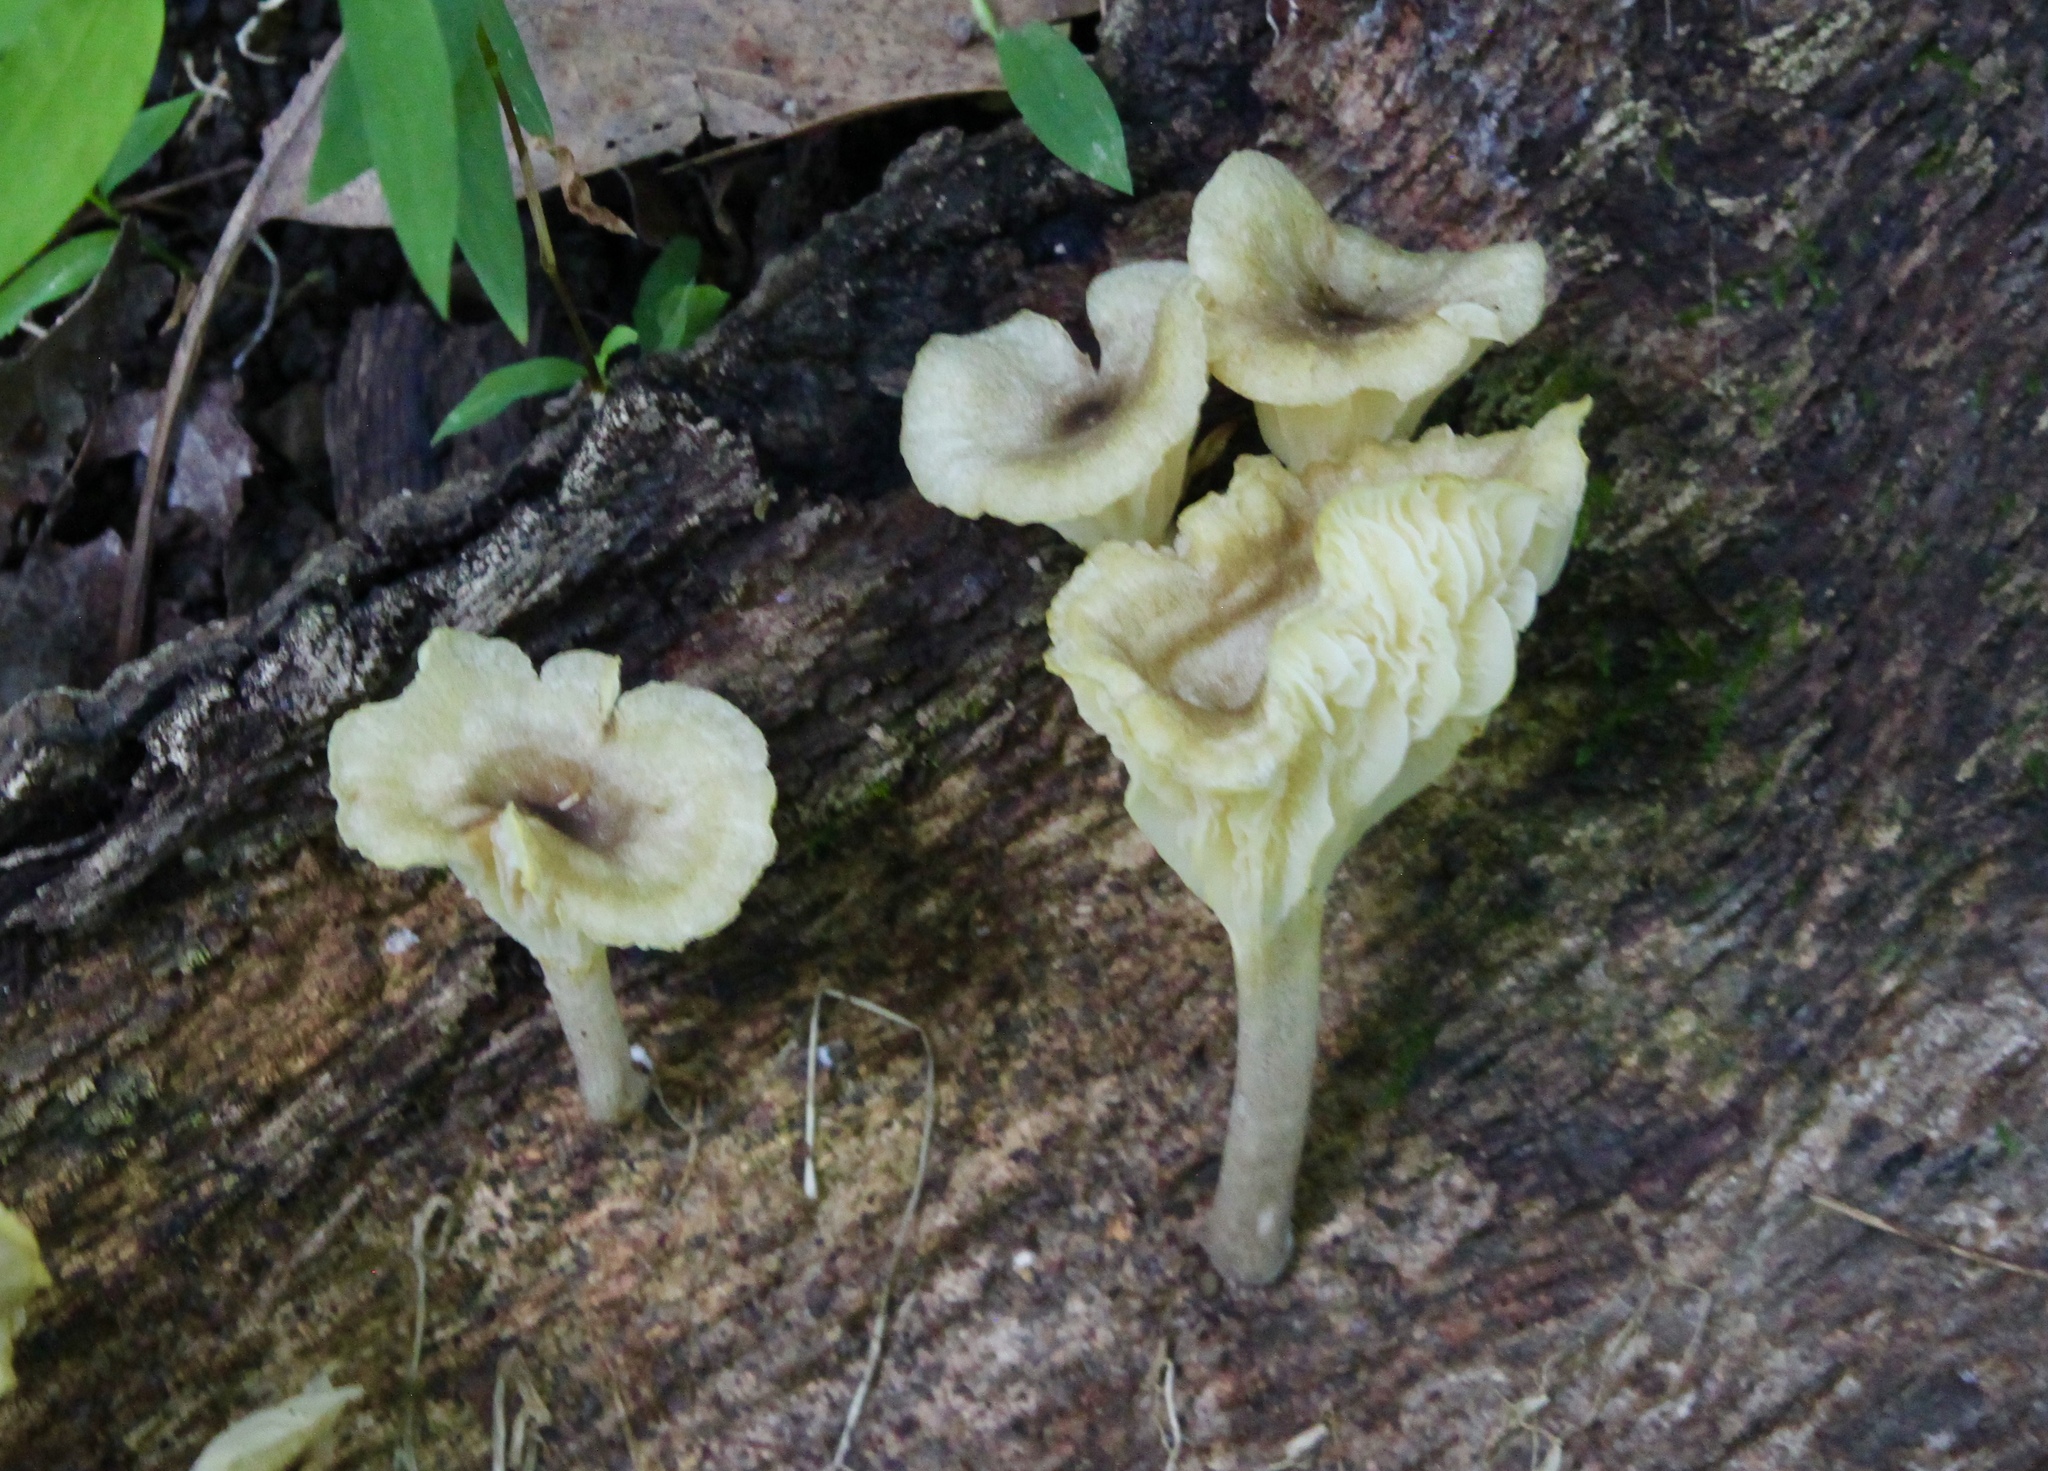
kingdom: Fungi
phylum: Basidiomycota
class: Agaricomycetes
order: Agaricales
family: Marasmiaceae
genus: Gerronema
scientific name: Gerronema strombodes
